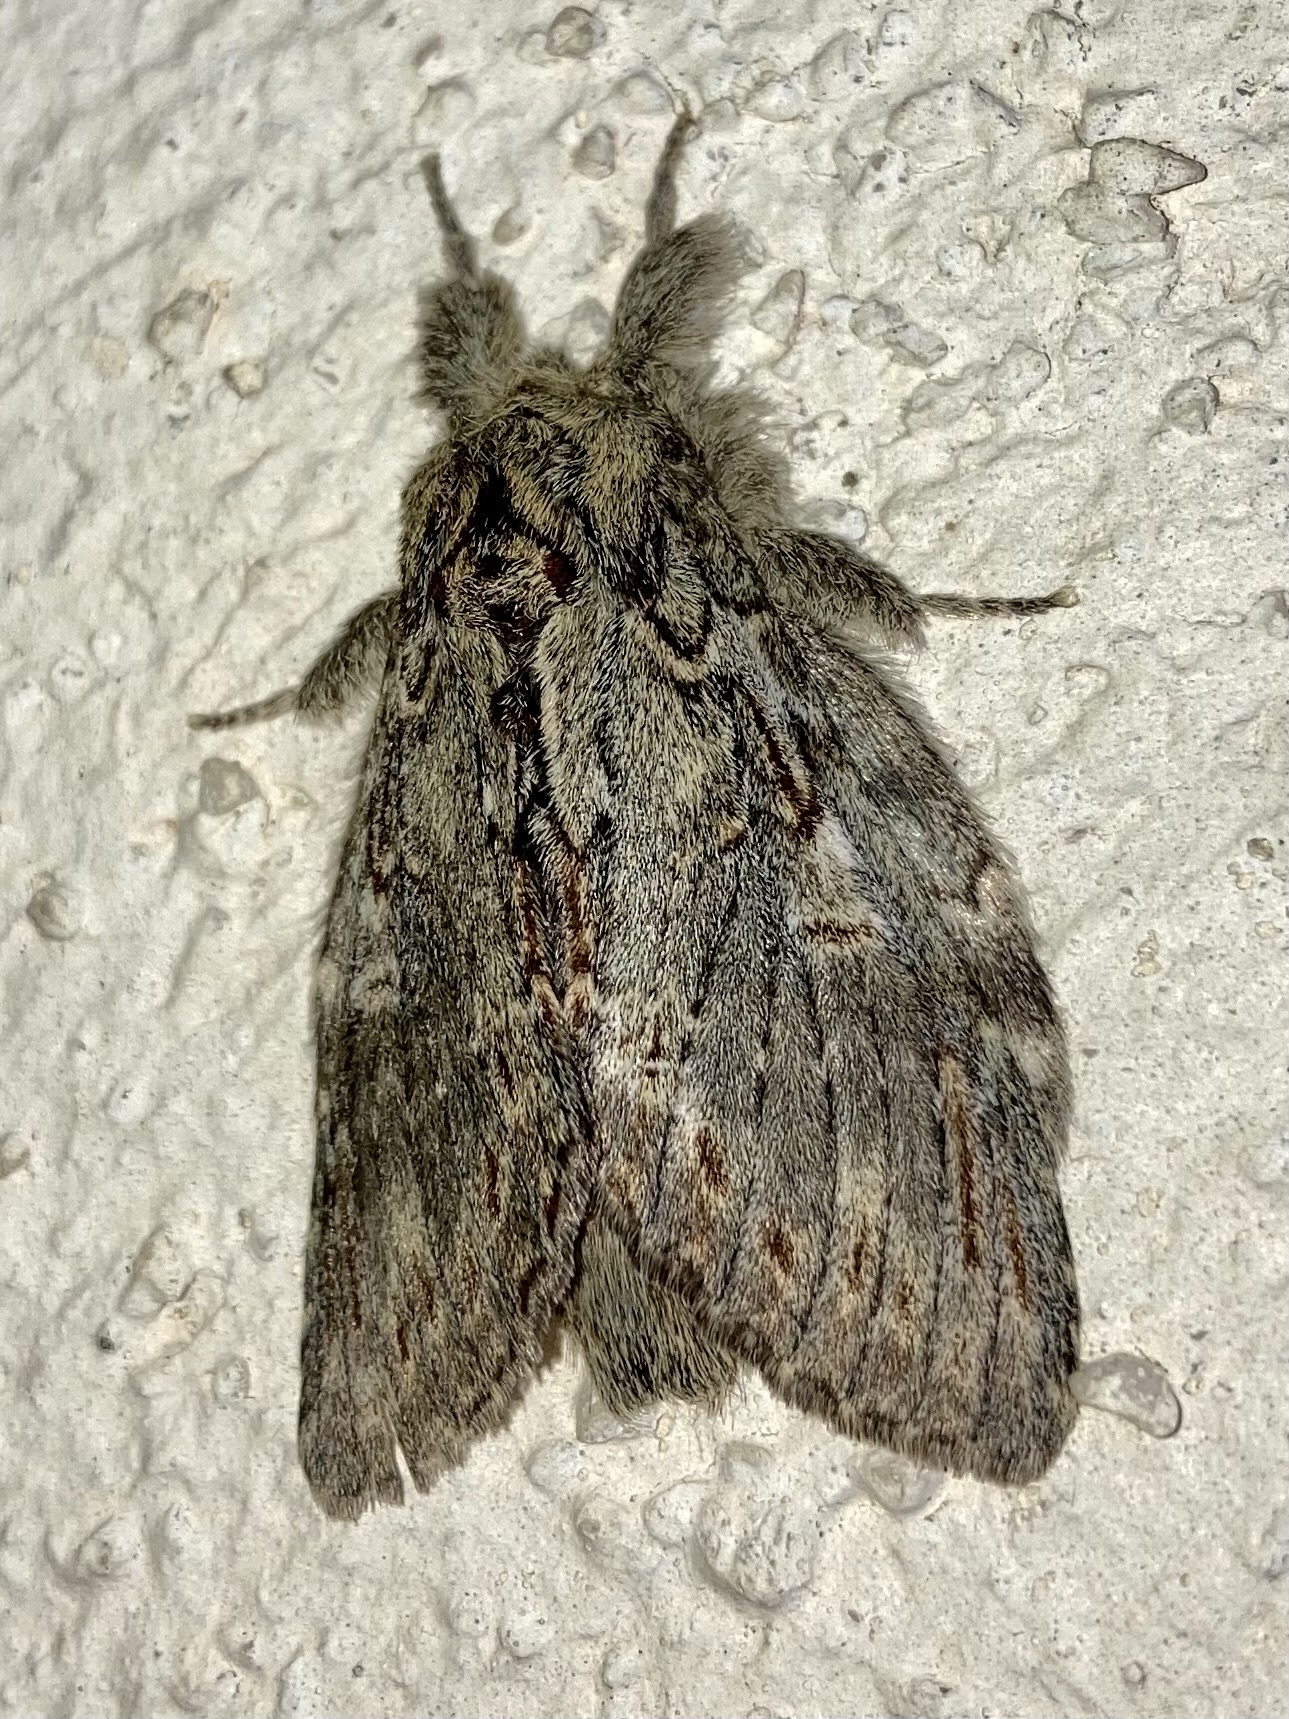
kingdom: Animalia
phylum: Arthropoda
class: Insecta
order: Lepidoptera
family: Notodontidae
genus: Peridea
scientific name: Peridea anceps
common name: Great prominent
